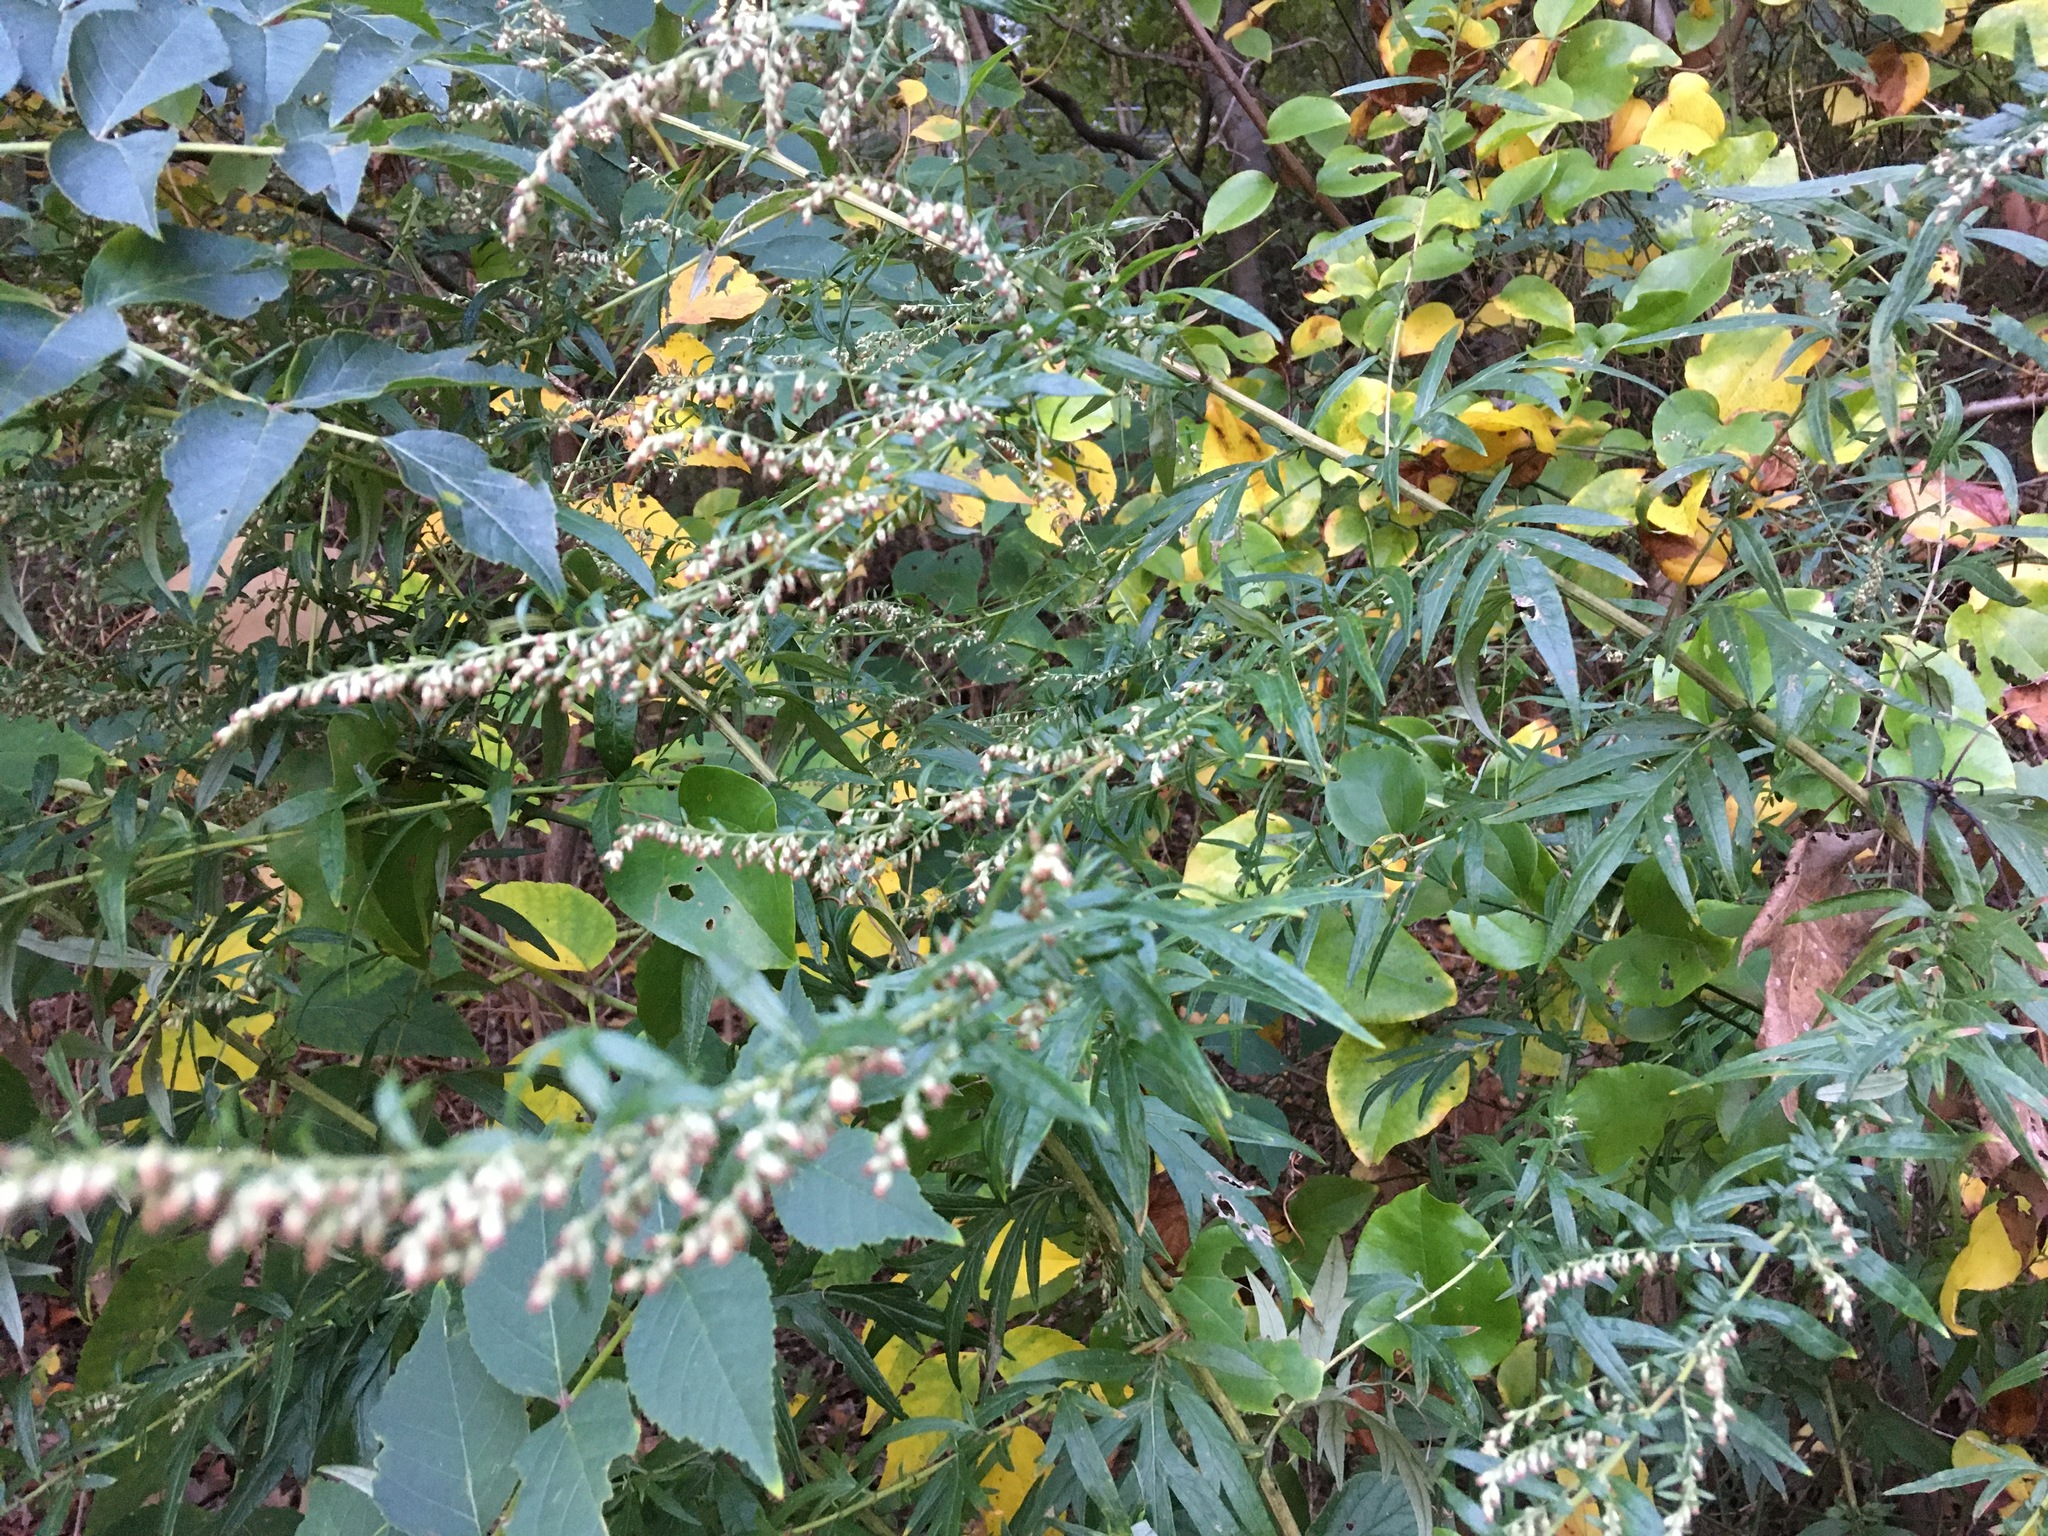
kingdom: Plantae
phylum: Tracheophyta
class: Magnoliopsida
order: Asterales
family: Asteraceae
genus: Artemisia
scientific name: Artemisia vulgaris
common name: Mugwort
